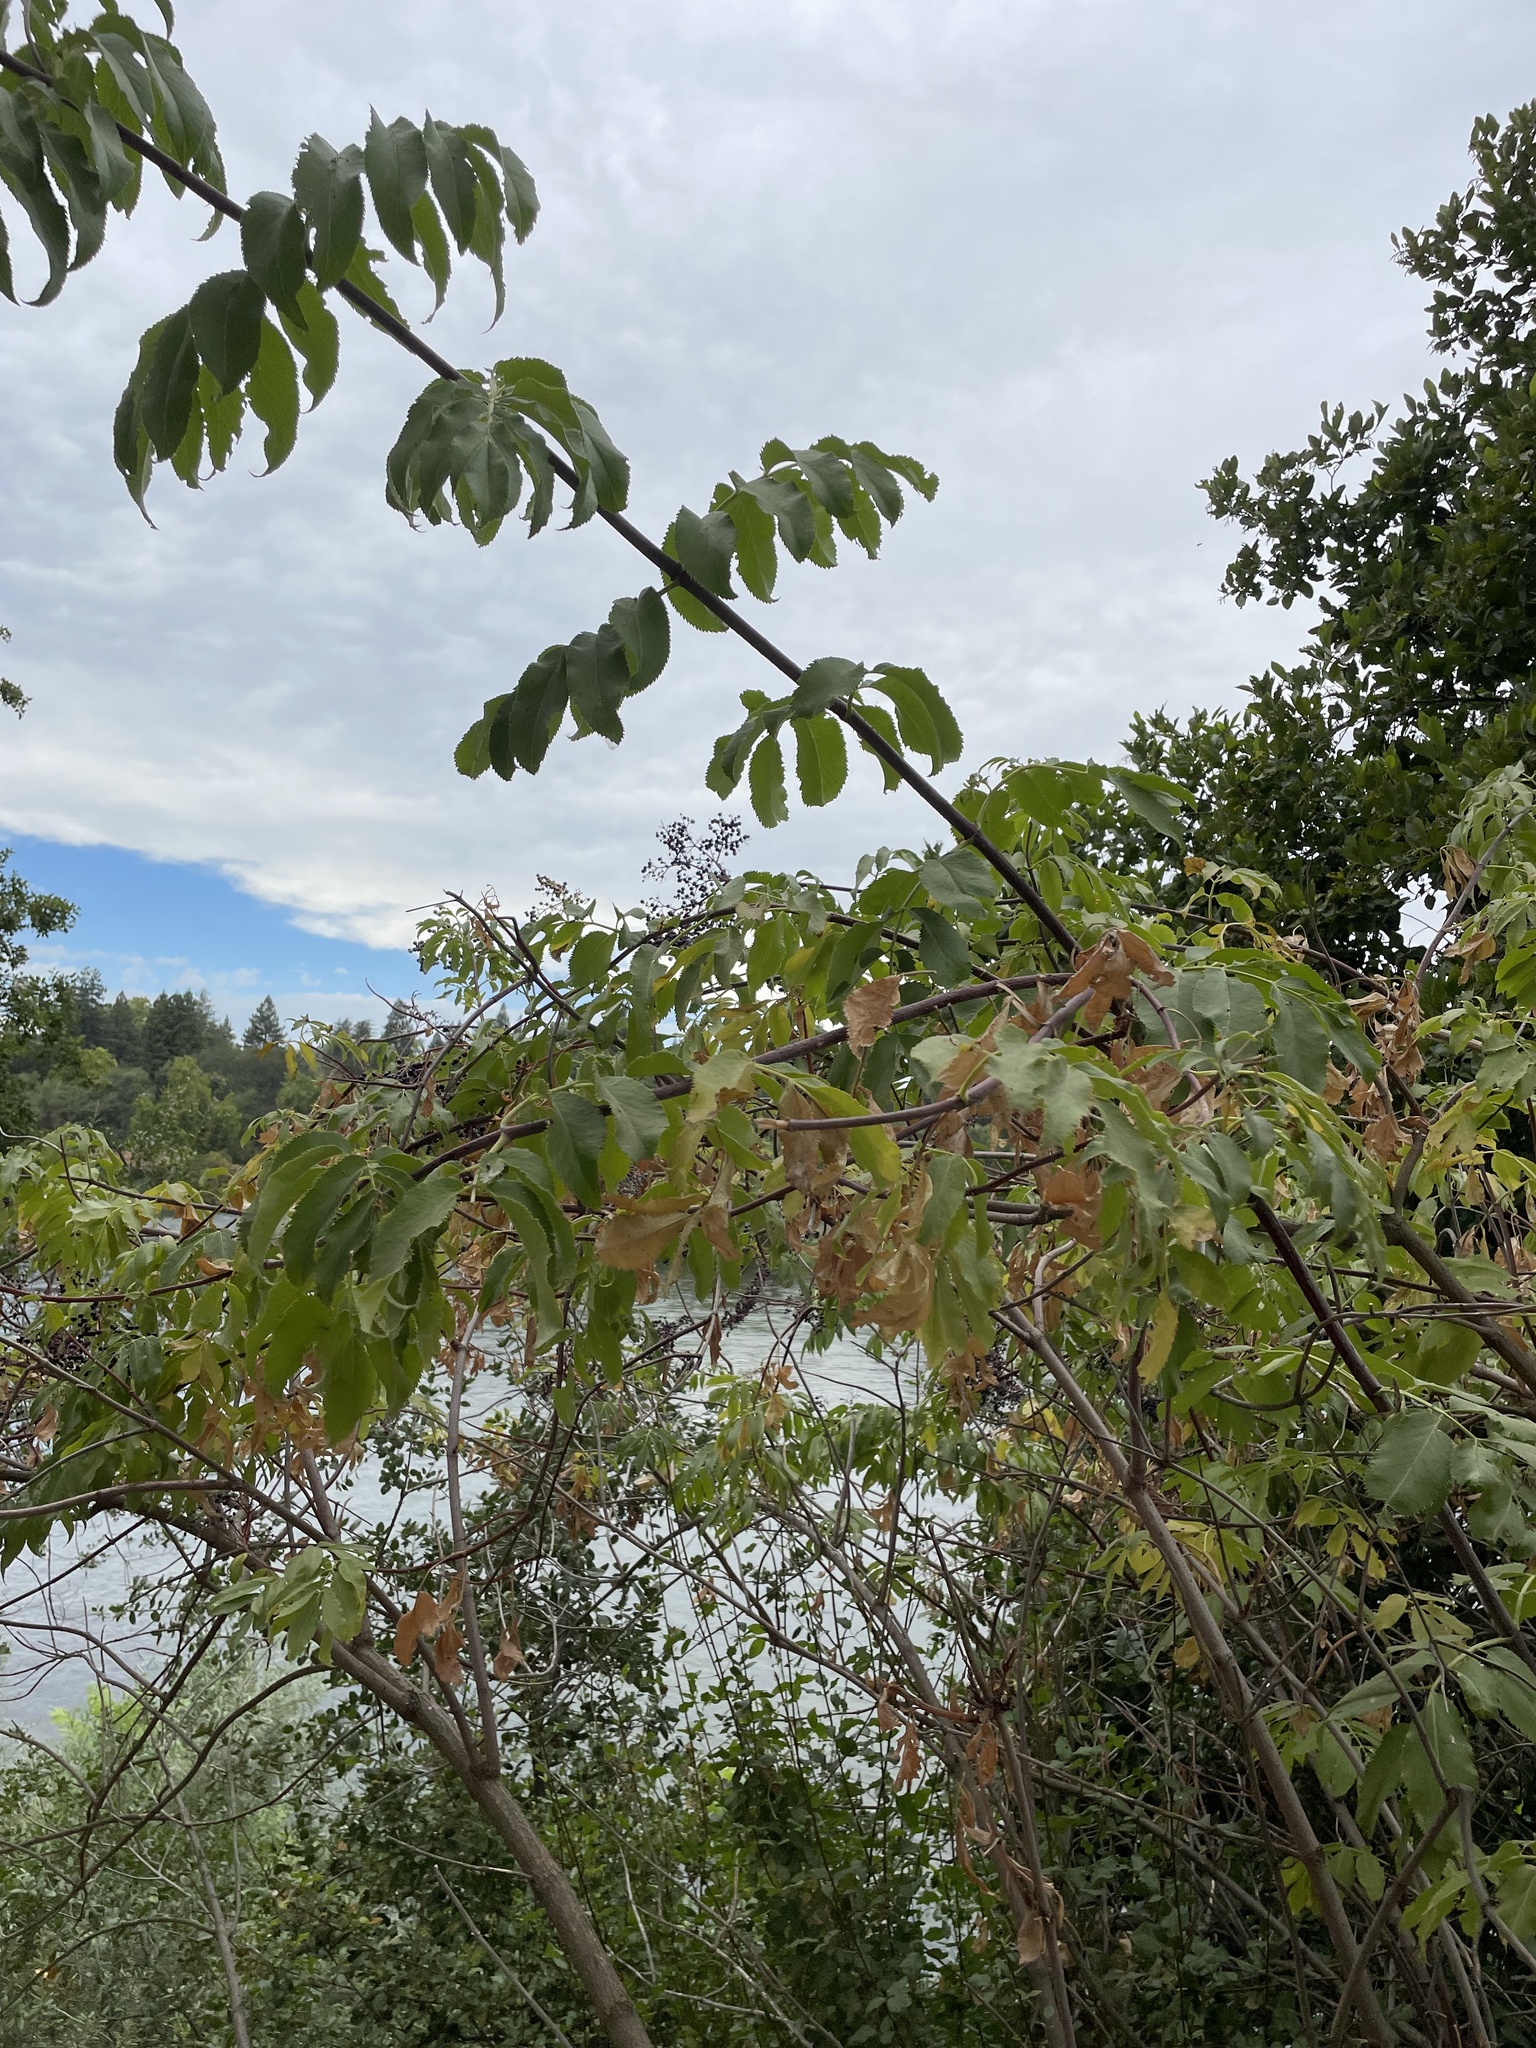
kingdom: Plantae
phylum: Tracheophyta
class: Magnoliopsida
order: Dipsacales
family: Viburnaceae
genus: Sambucus
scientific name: Sambucus cerulea
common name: Blue elder
